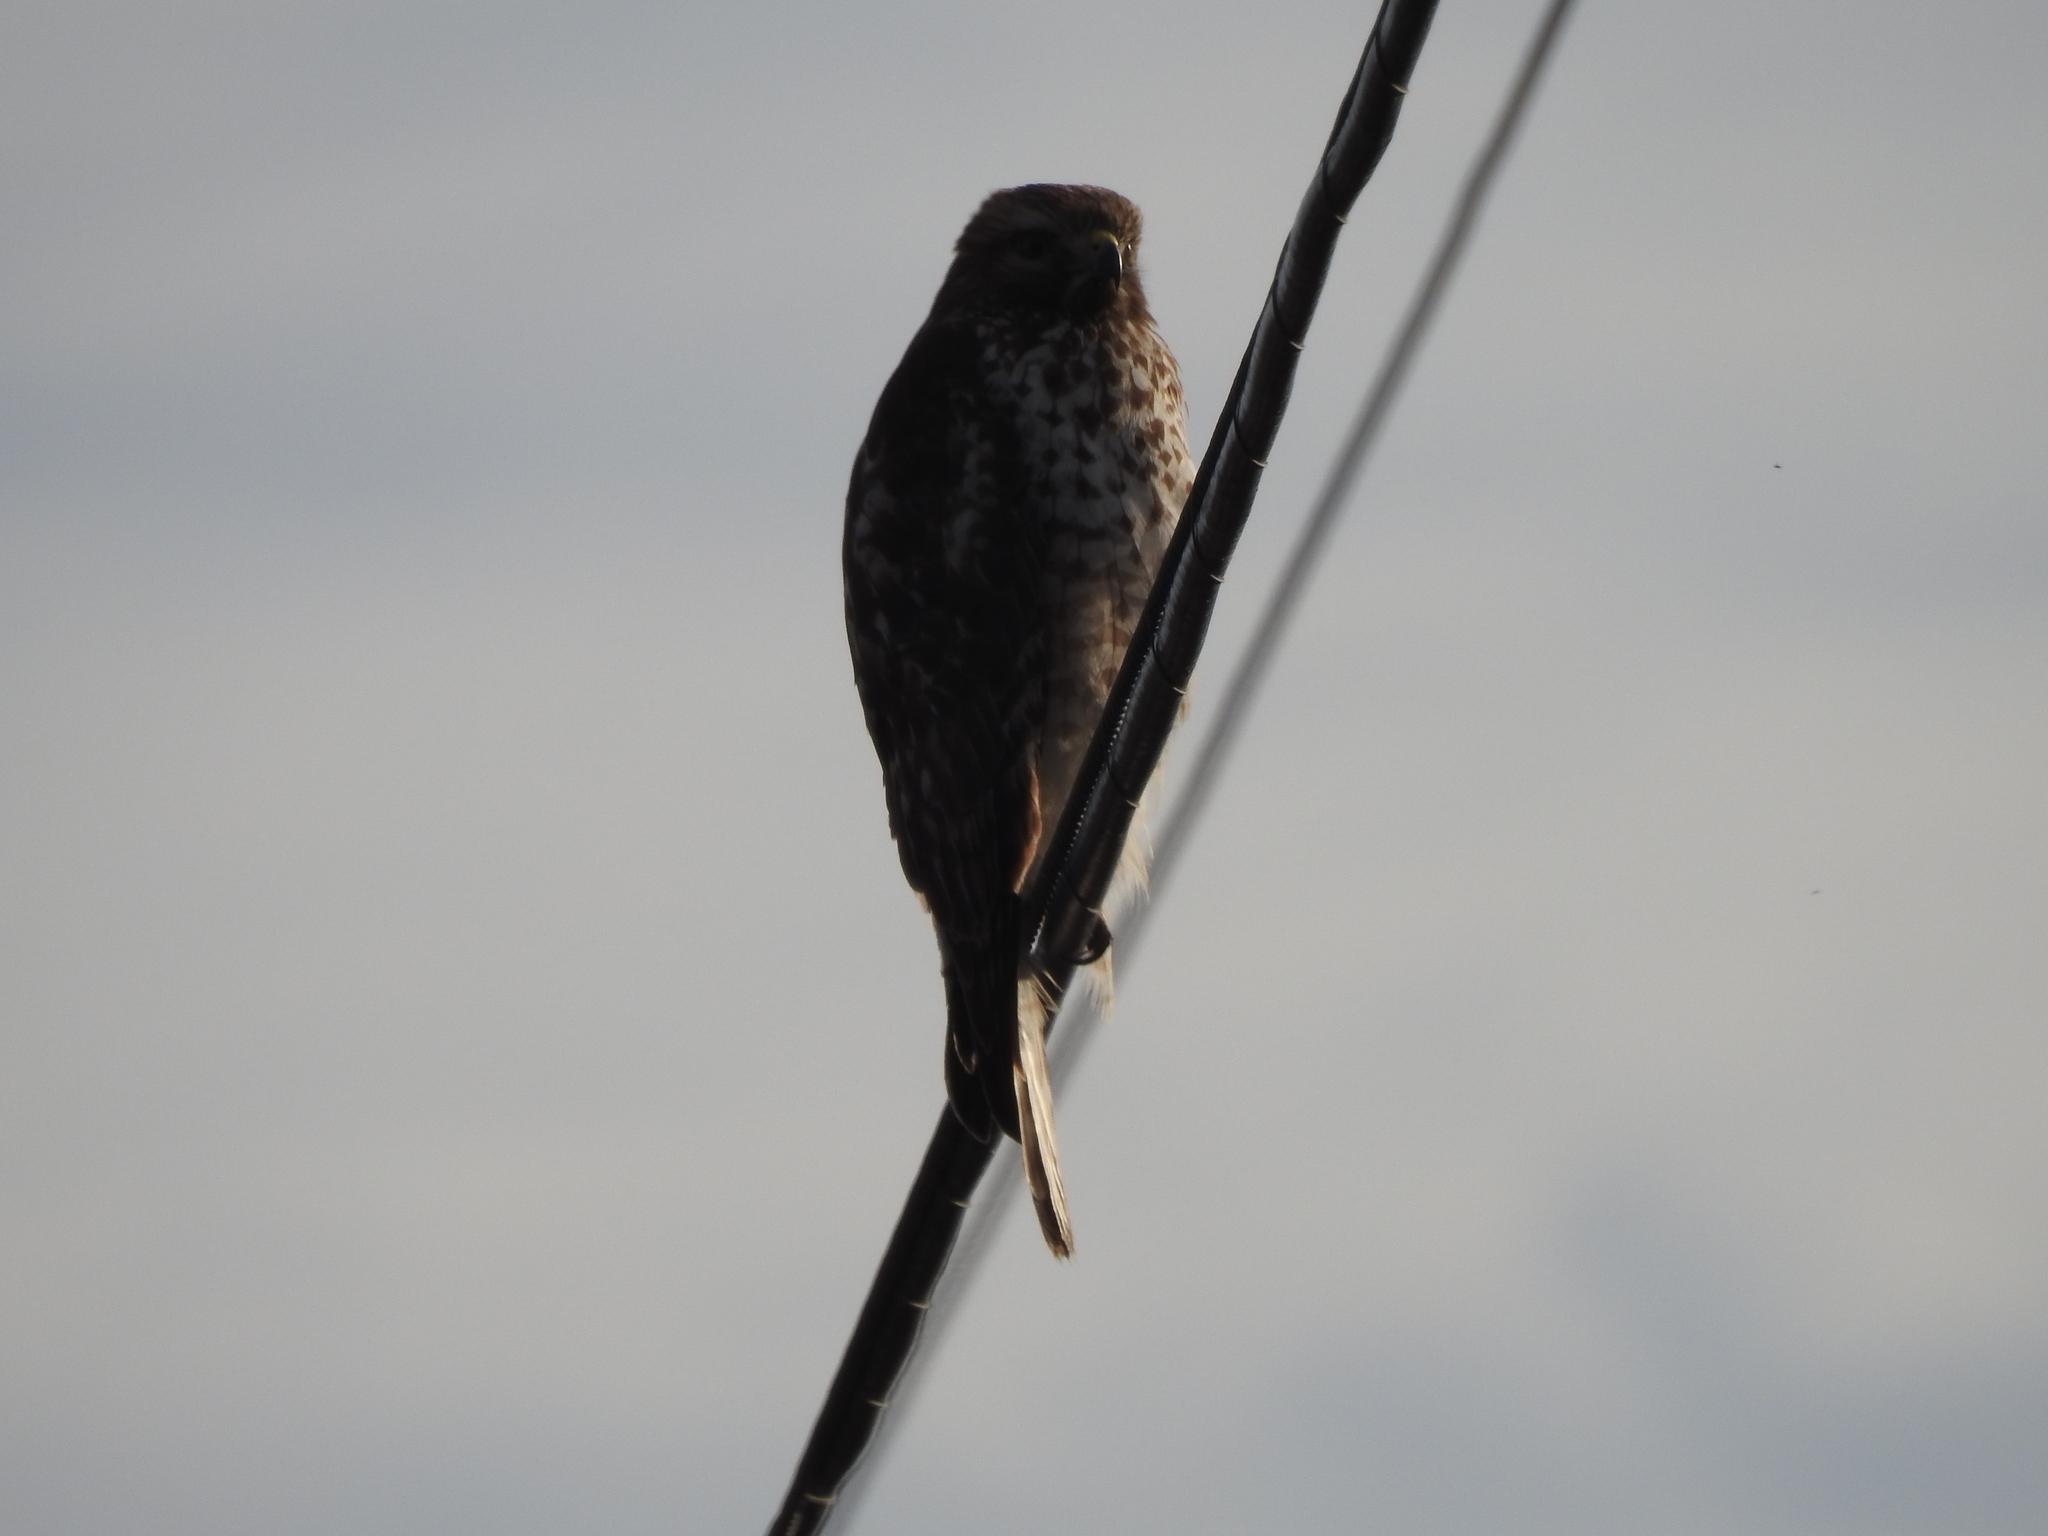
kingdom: Animalia
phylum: Chordata
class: Aves
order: Accipitriformes
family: Accipitridae
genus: Buteo
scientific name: Buteo lineatus
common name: Red-shouldered hawk
